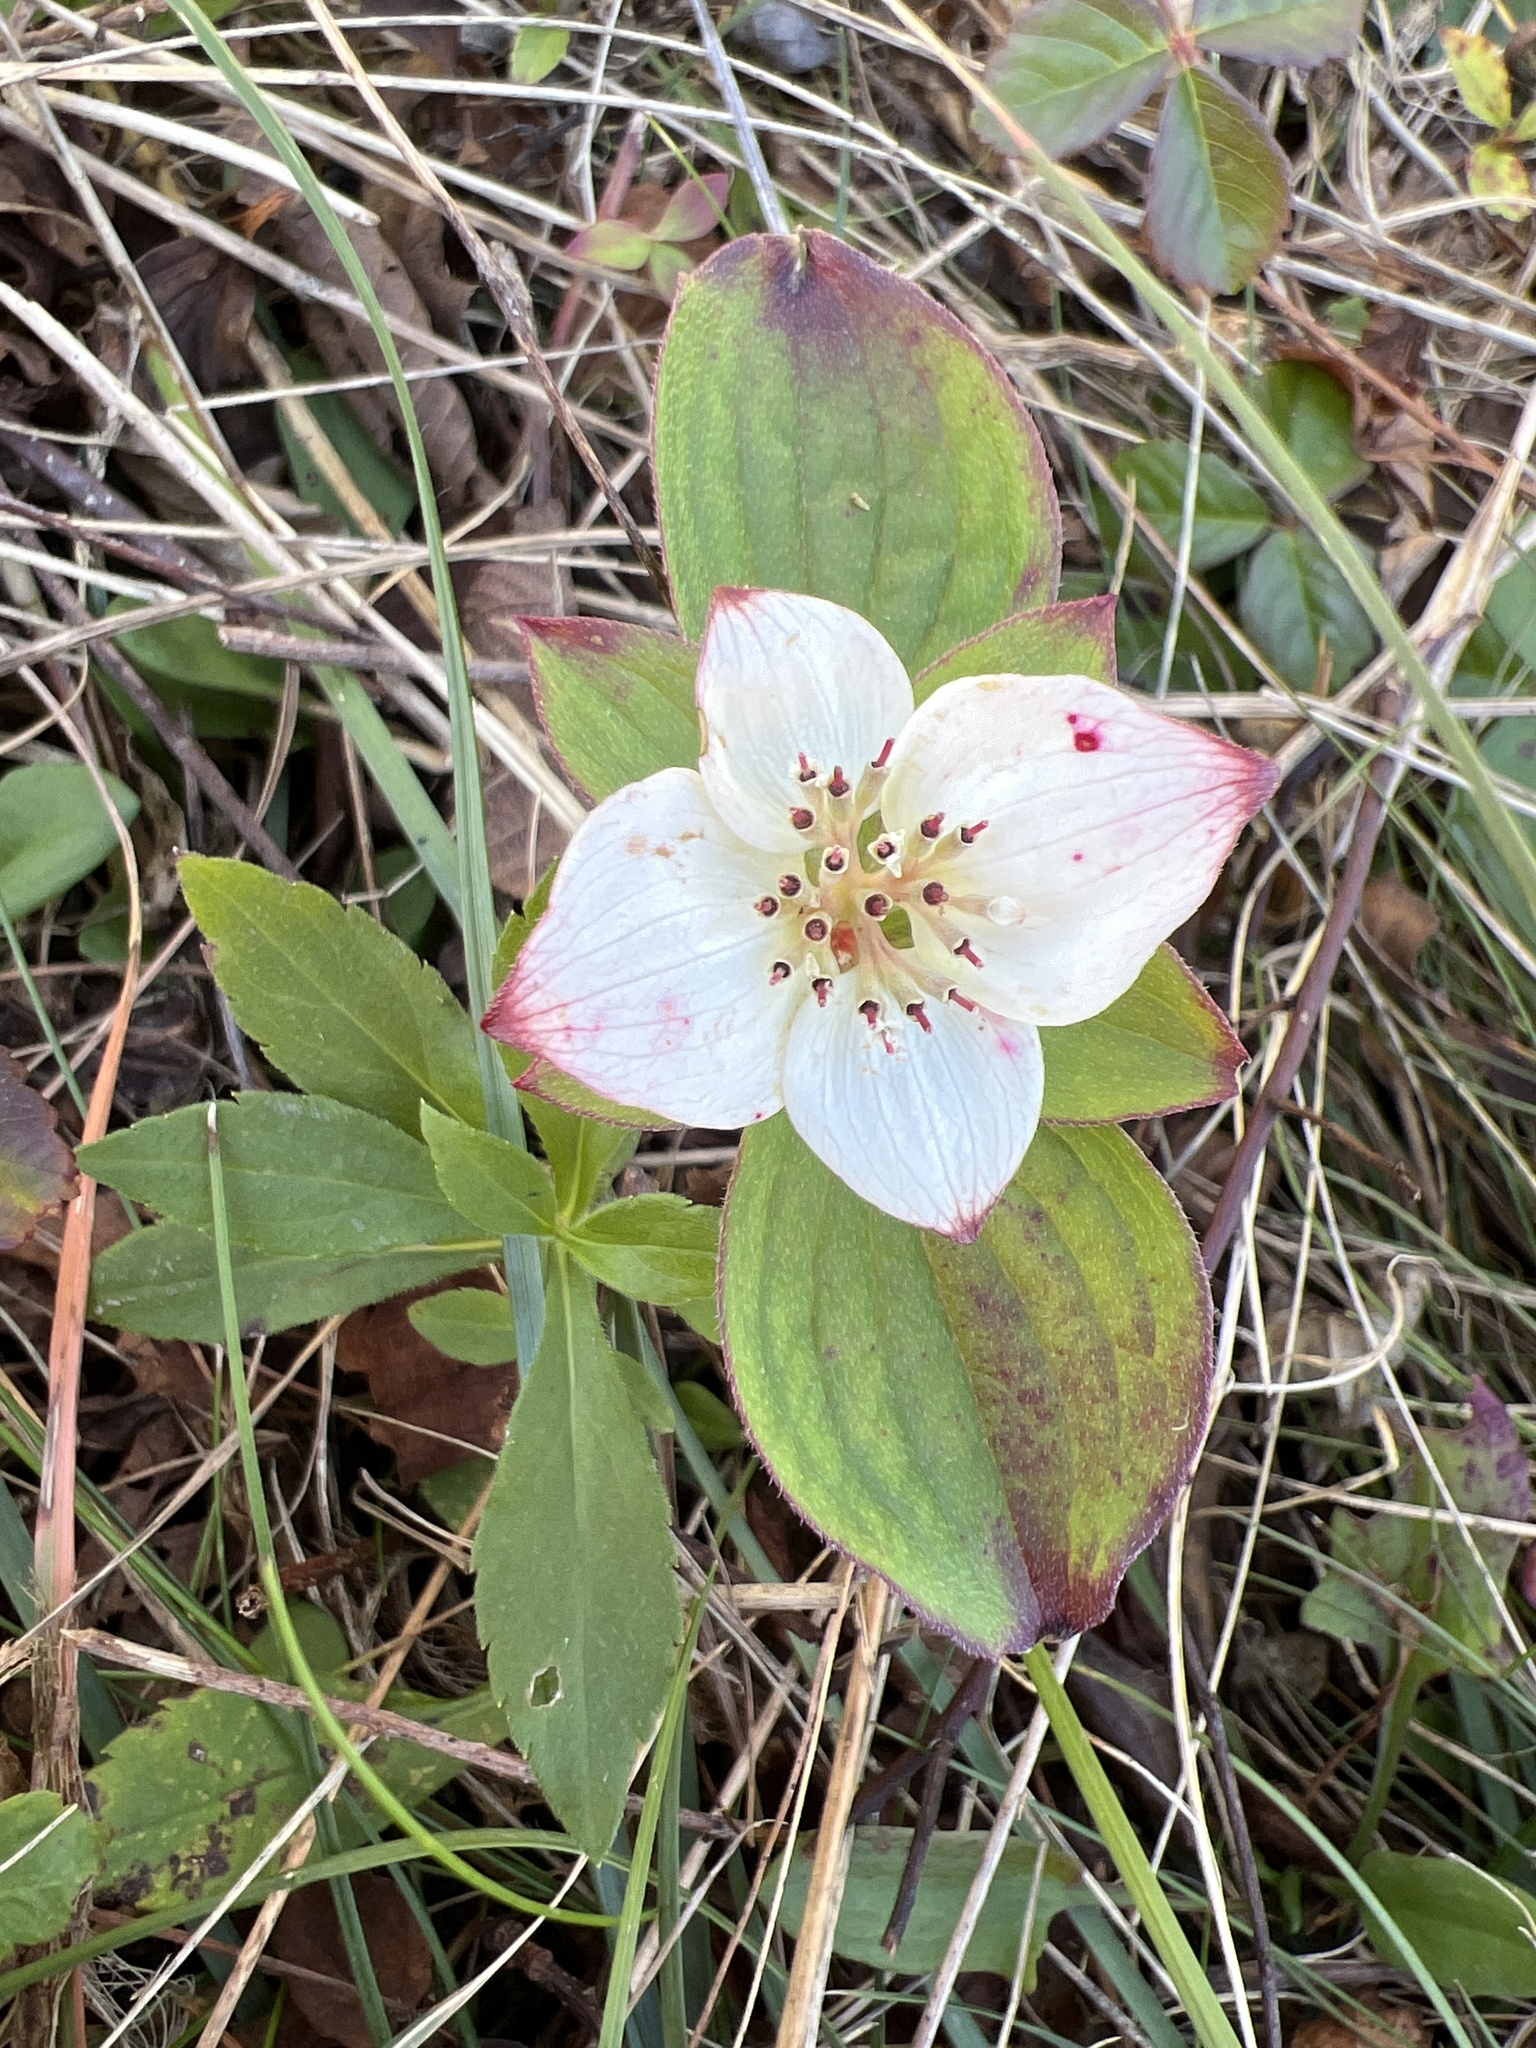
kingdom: Plantae
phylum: Tracheophyta
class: Magnoliopsida
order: Cornales
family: Cornaceae
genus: Cornus
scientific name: Cornus canadensis
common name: Creeping dogwood
